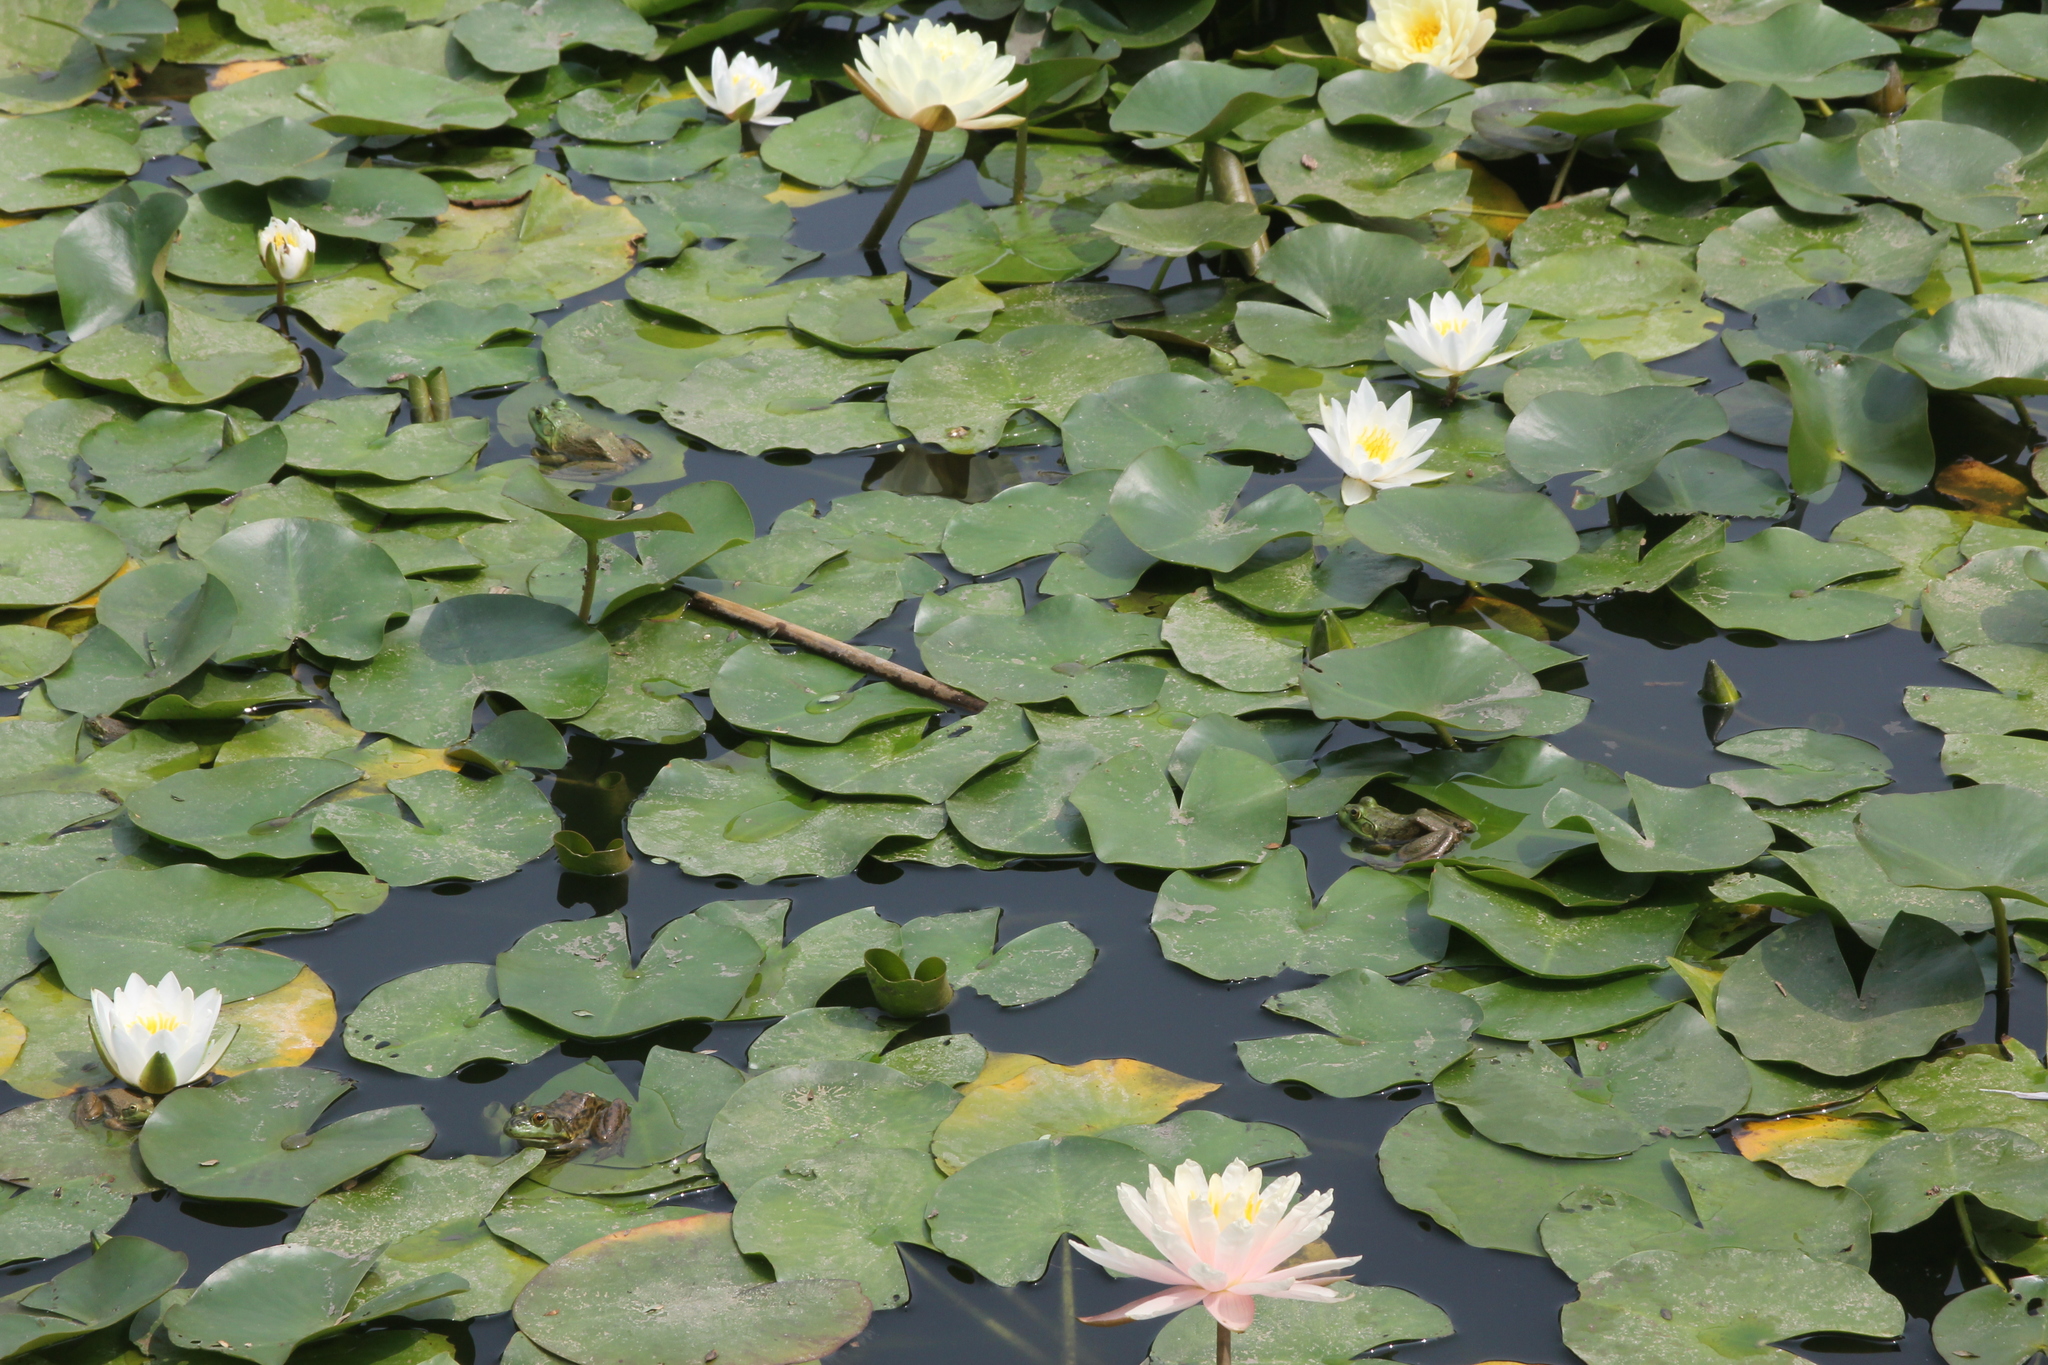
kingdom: Animalia
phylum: Chordata
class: Amphibia
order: Anura
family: Ranidae
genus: Lithobates
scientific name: Lithobates catesbeianus
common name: American bullfrog
